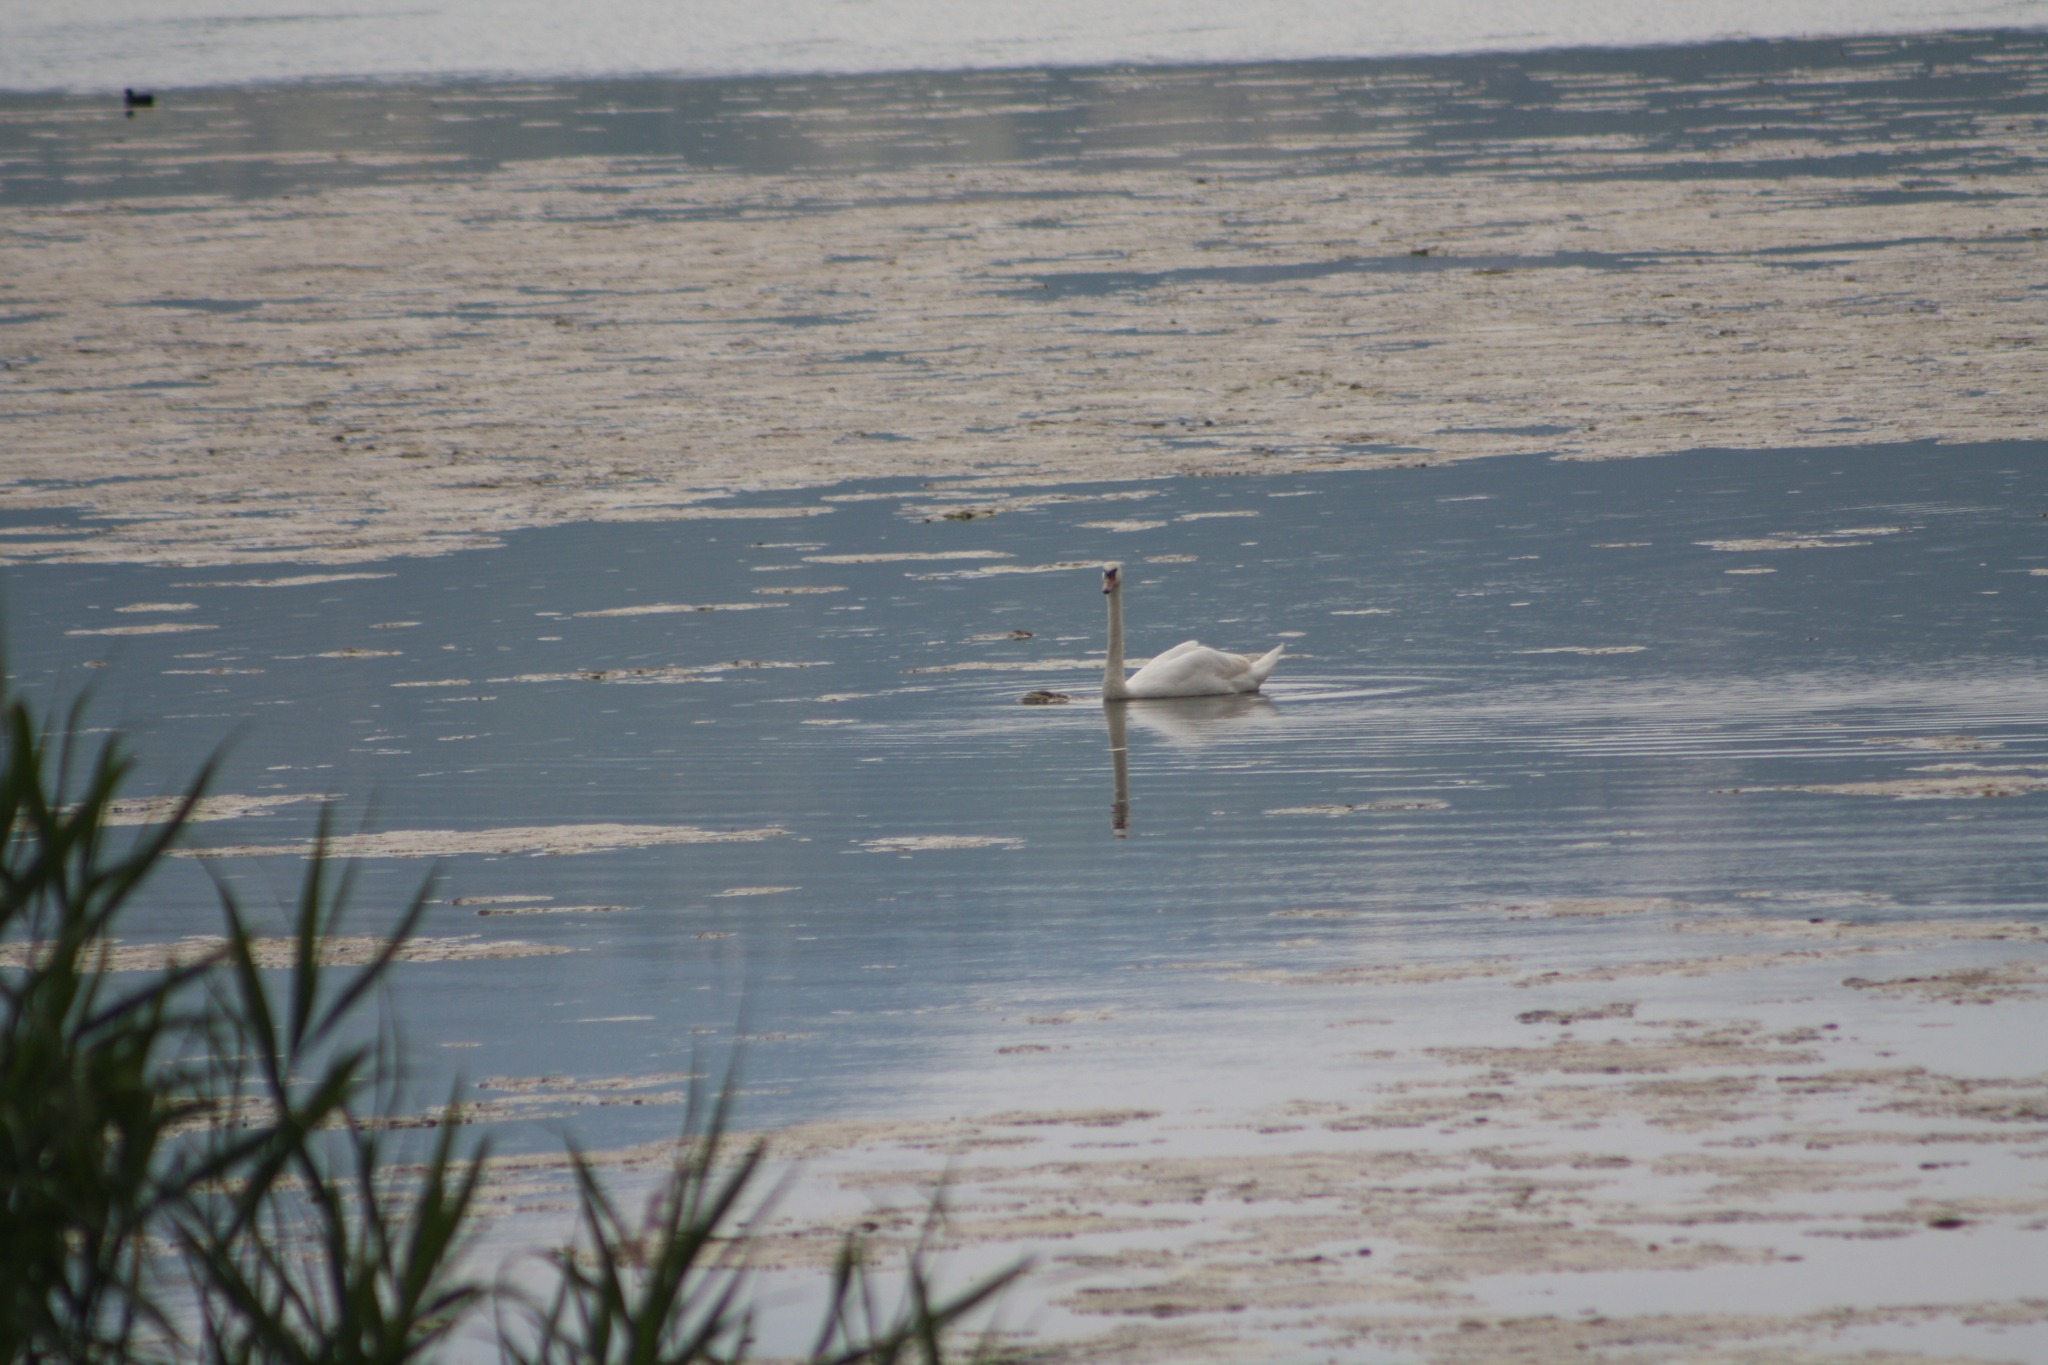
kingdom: Animalia
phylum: Chordata
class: Aves
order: Anseriformes
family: Anatidae
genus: Cygnus
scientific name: Cygnus olor
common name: Mute swan
